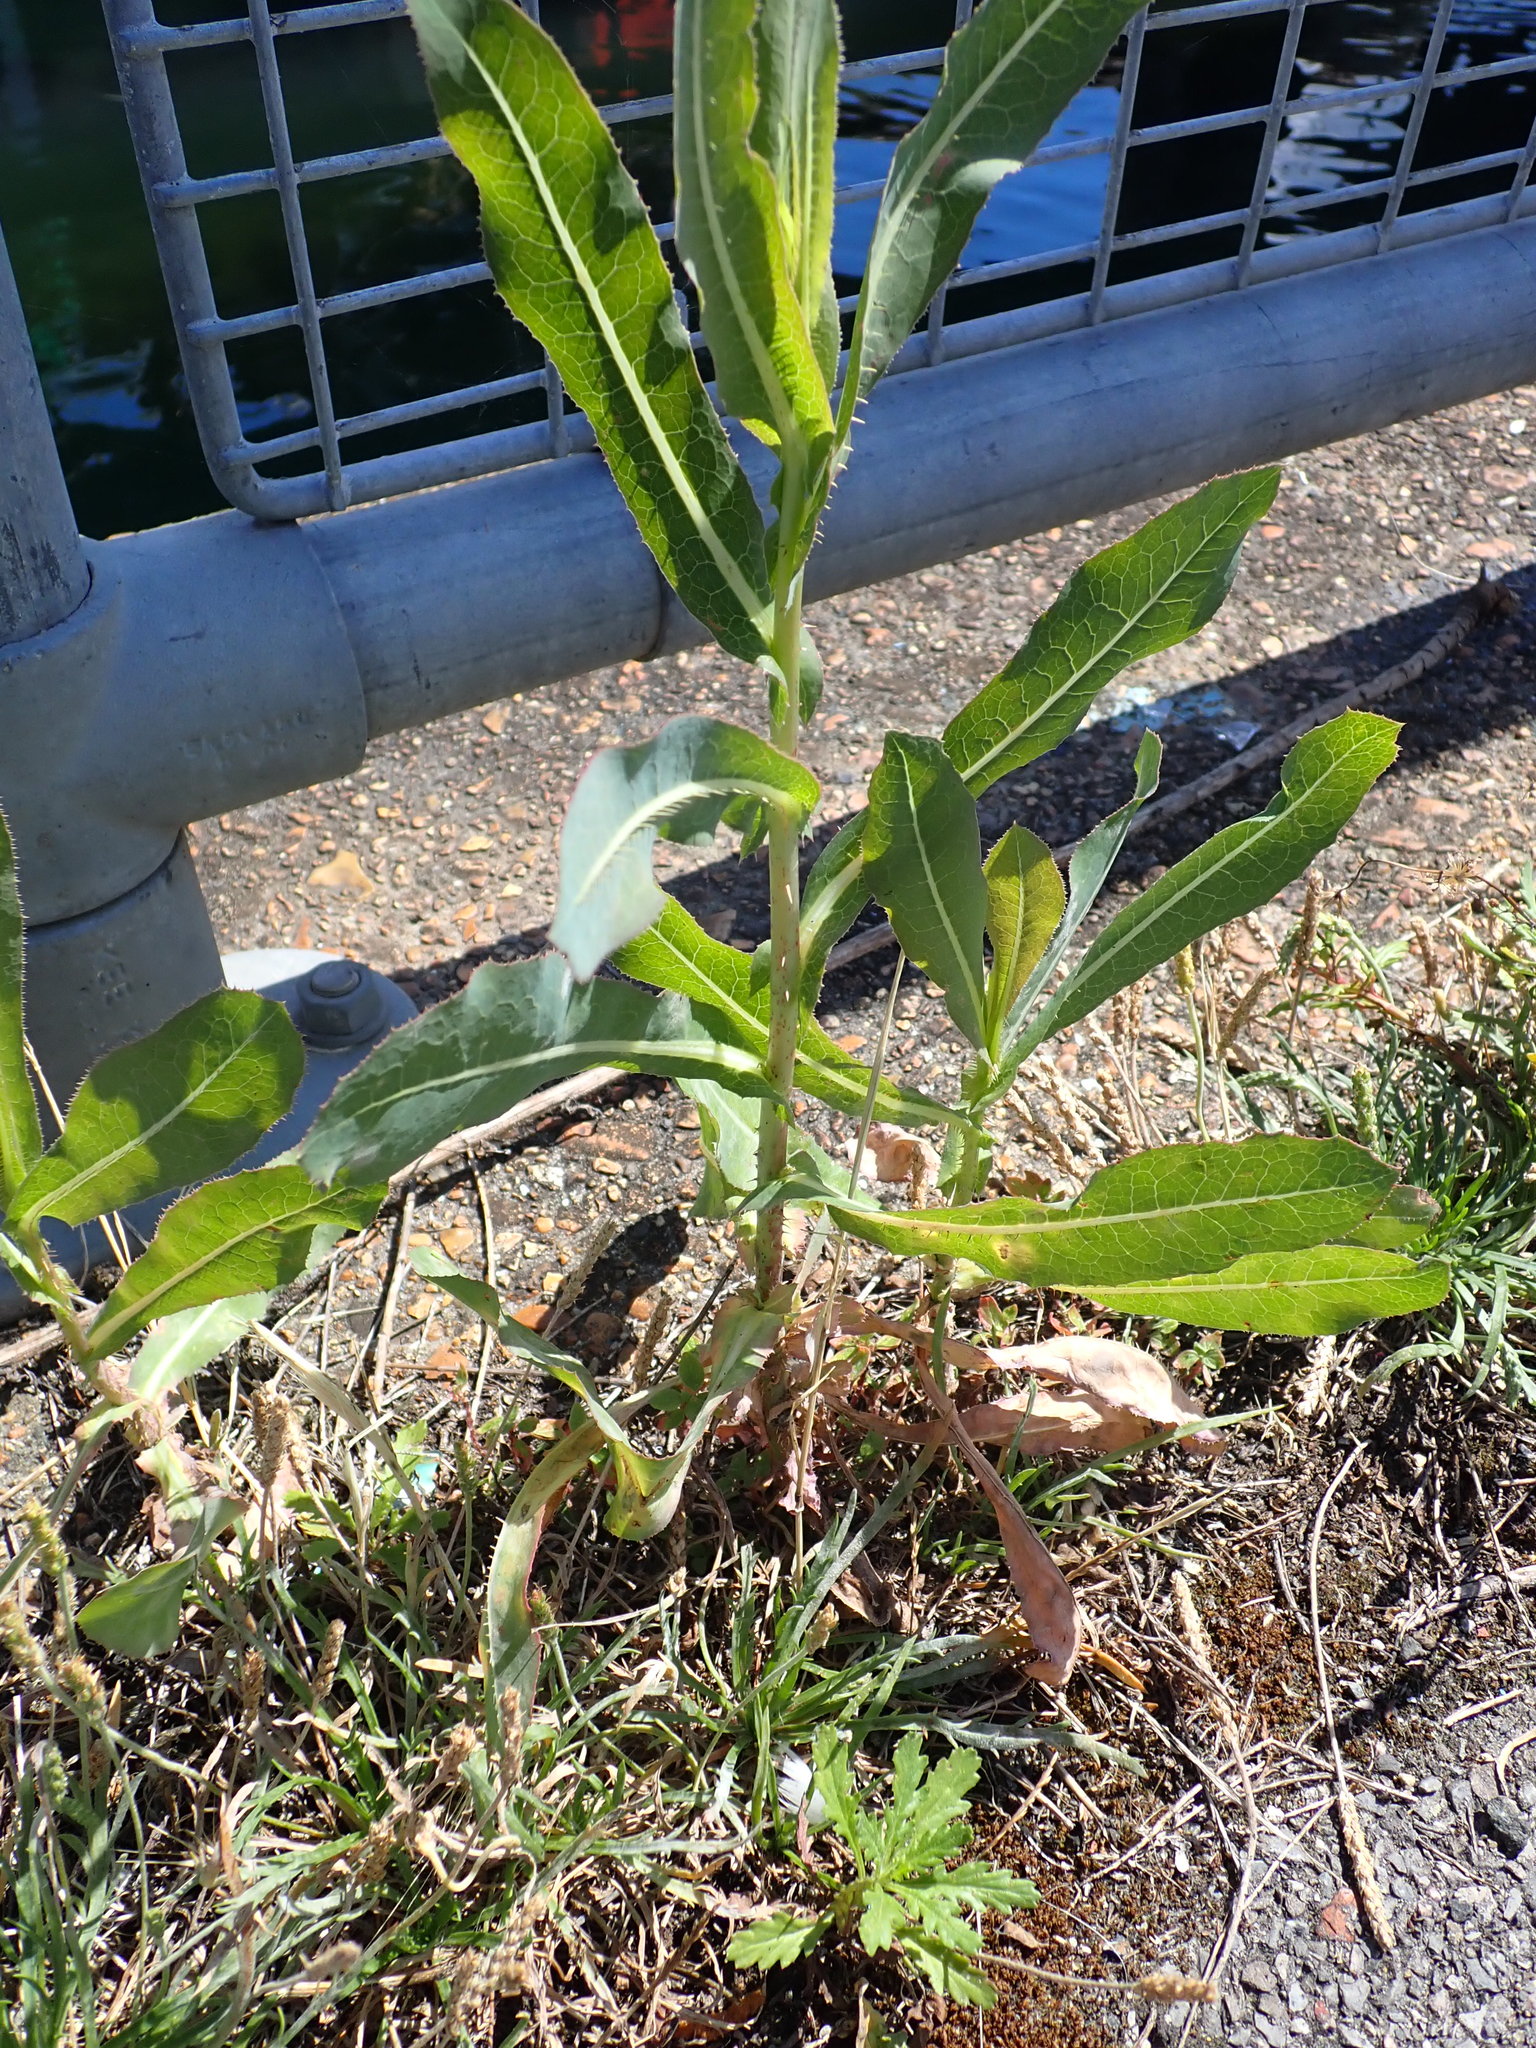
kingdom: Plantae
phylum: Tracheophyta
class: Magnoliopsida
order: Asterales
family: Asteraceae
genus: Lactuca
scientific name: Lactuca serriola
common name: Prickly lettuce
